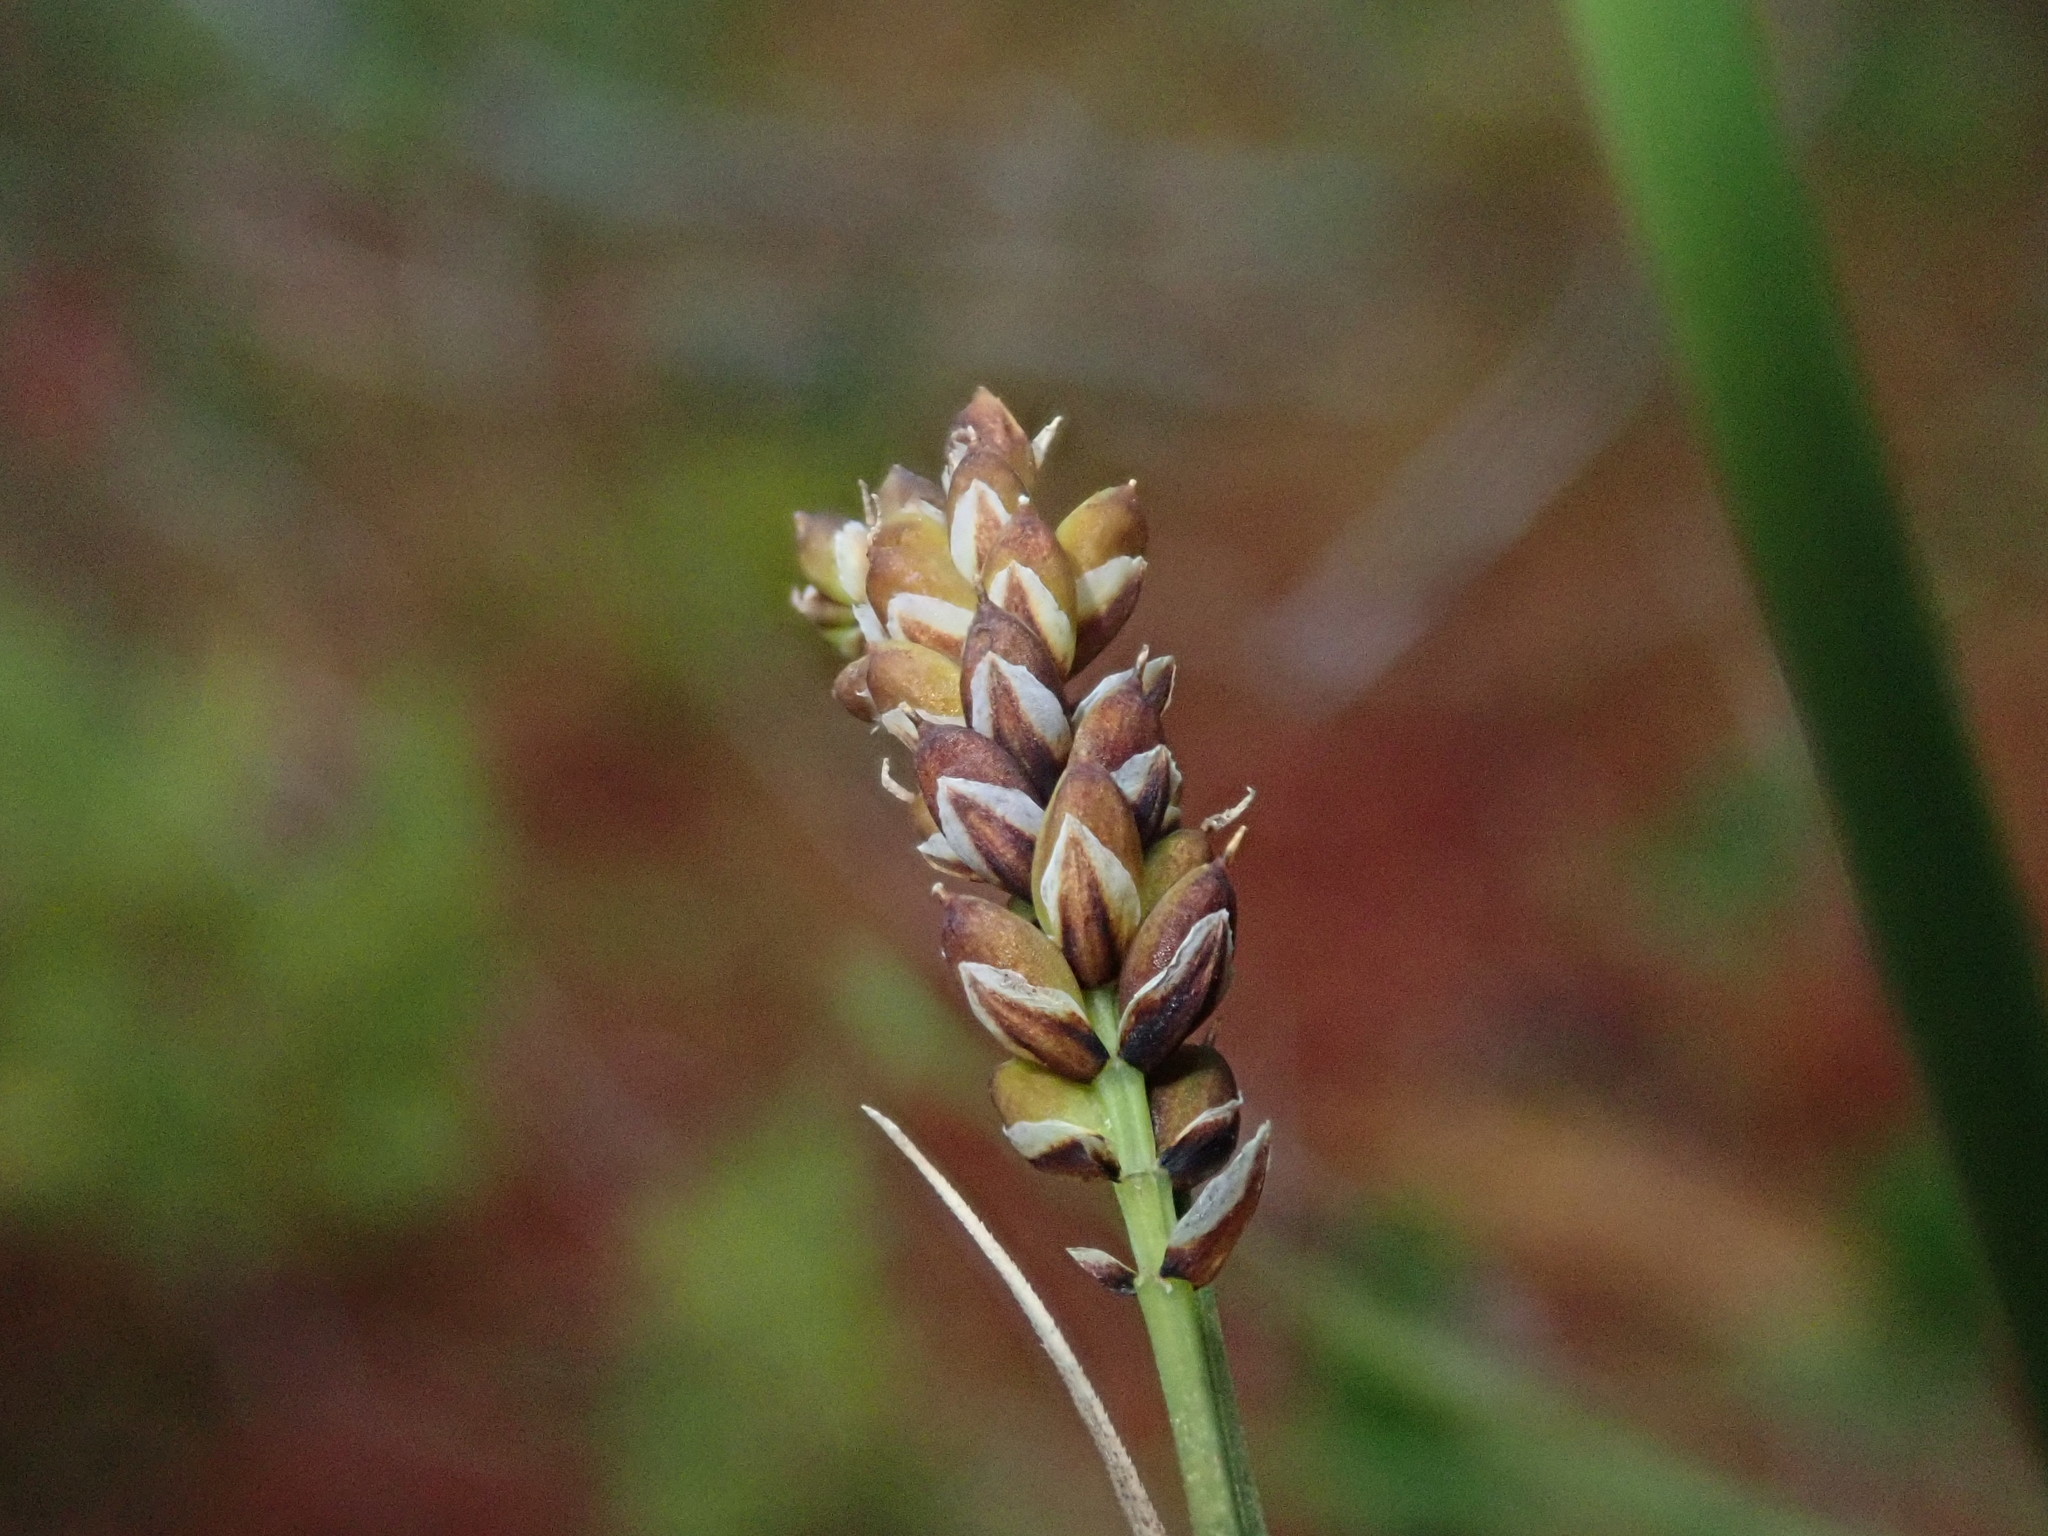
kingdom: Plantae
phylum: Tracheophyta
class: Liliopsida
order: Poales
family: Cyperaceae
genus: Carex
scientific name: Carex stylosa
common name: Long-styled sedge
